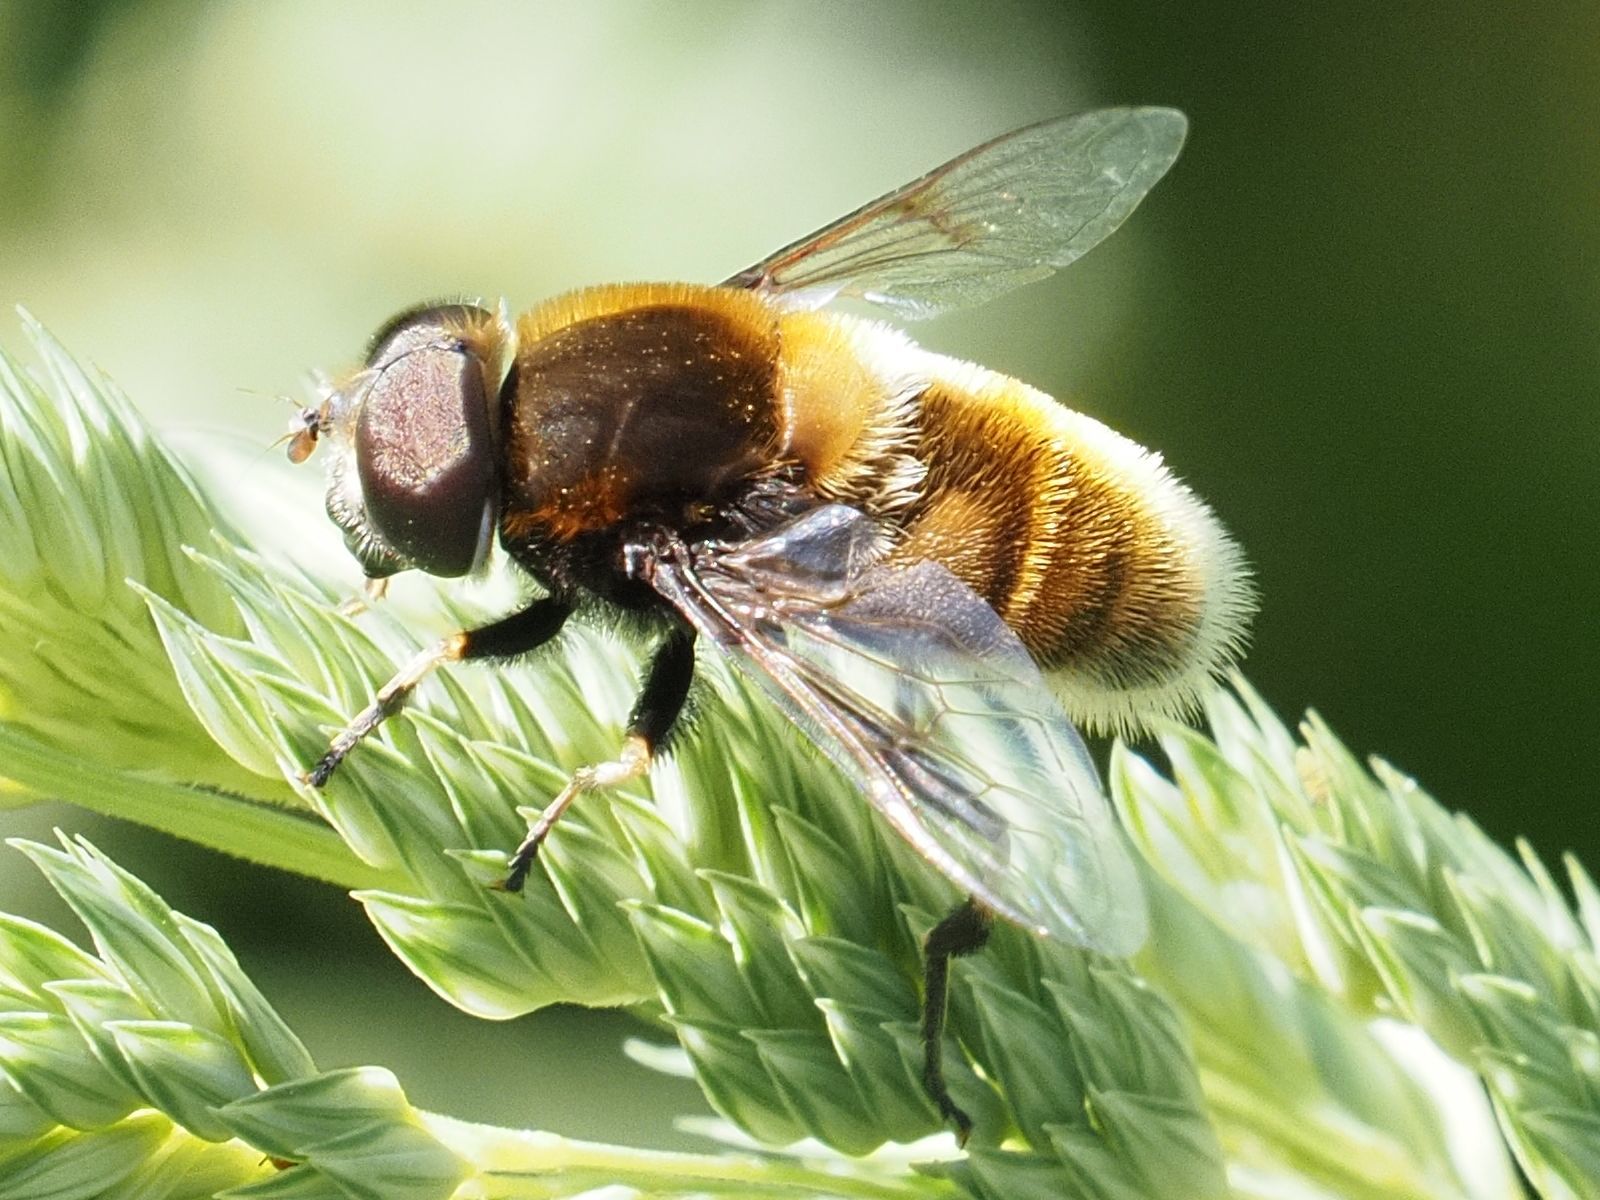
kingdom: Animalia
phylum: Arthropoda
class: Insecta
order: Diptera
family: Syrphidae
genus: Eristalis
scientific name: Eristalis intricaria
